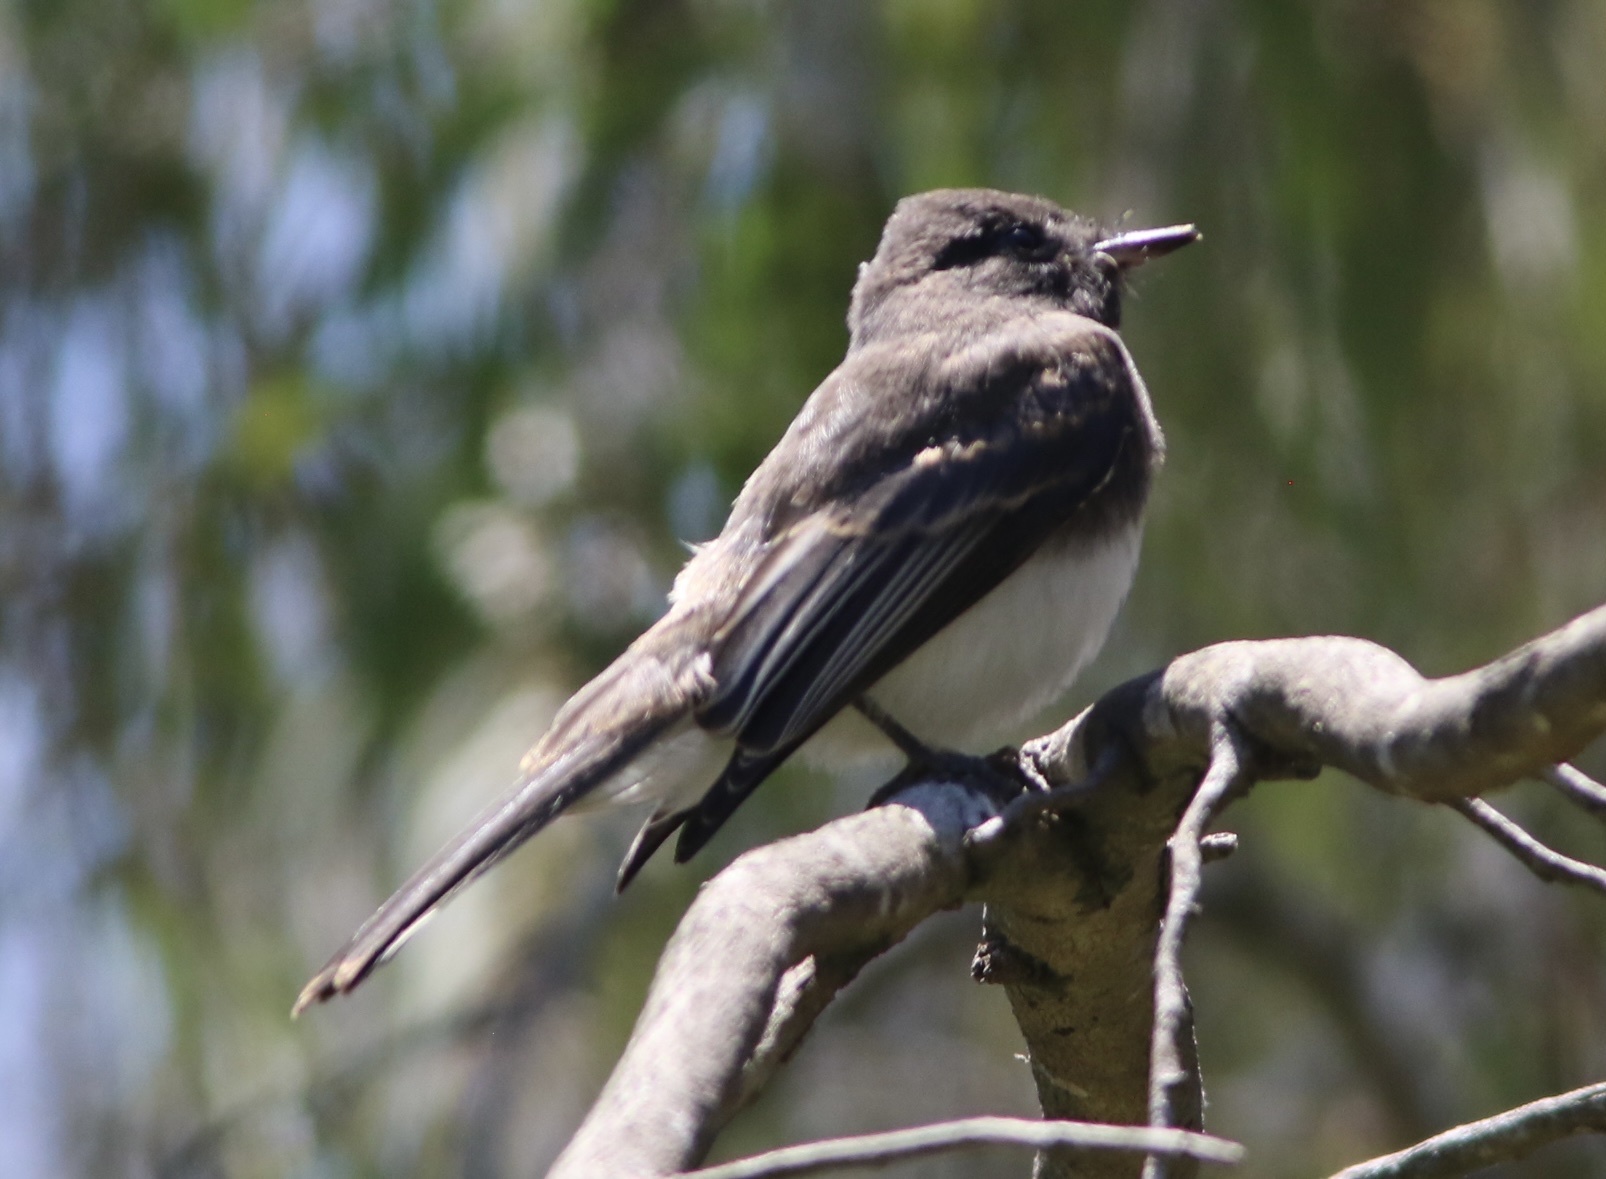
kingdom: Animalia
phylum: Chordata
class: Aves
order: Passeriformes
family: Tyrannidae
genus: Sayornis
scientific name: Sayornis nigricans
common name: Black phoebe
